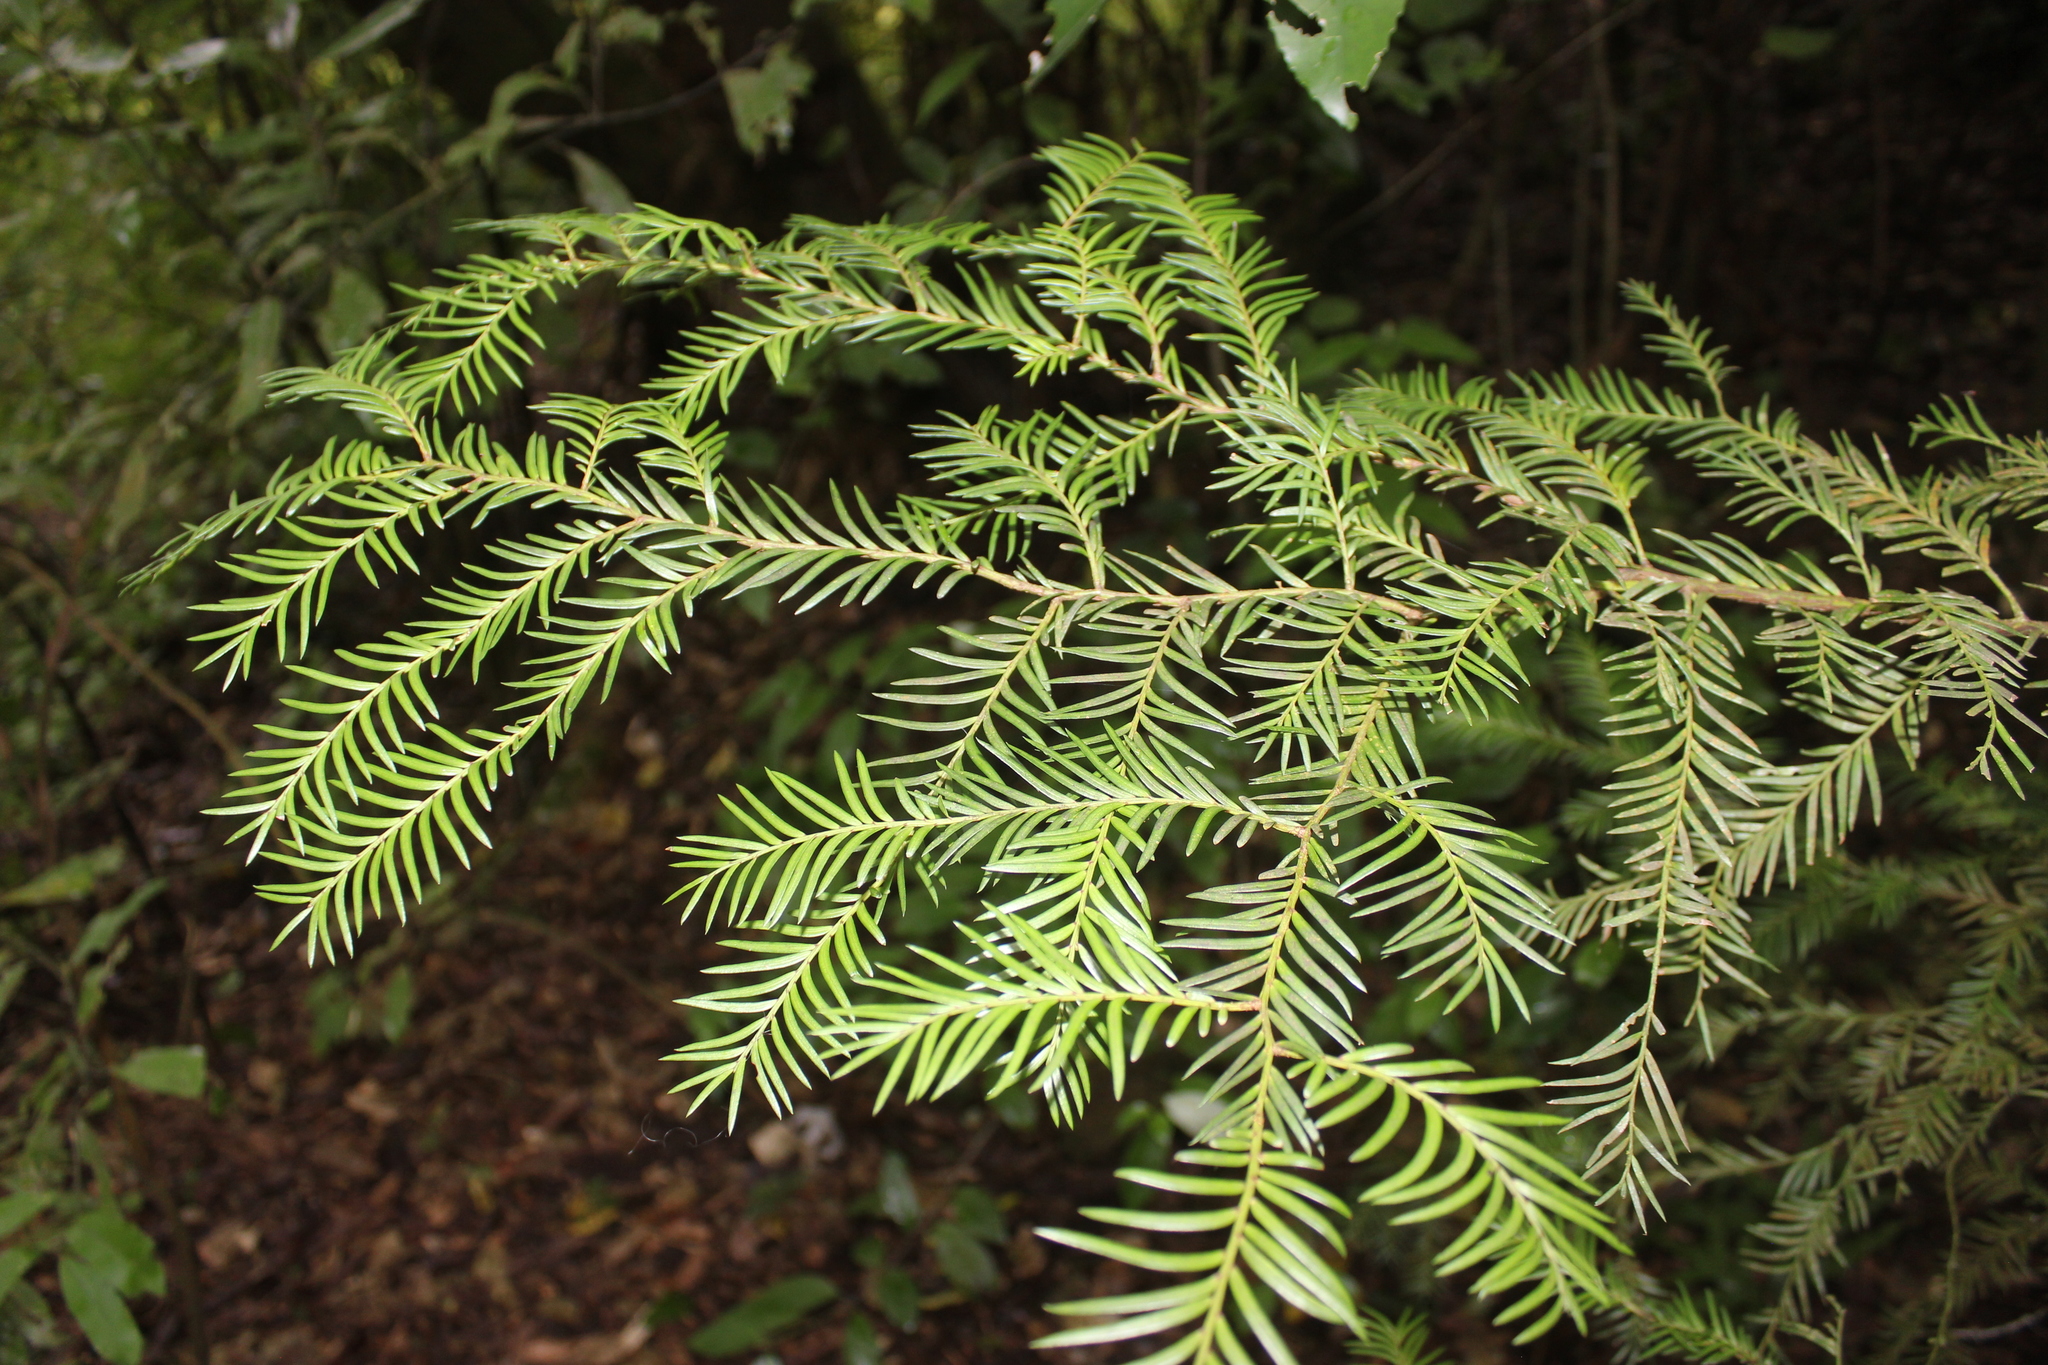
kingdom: Plantae
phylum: Tracheophyta
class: Pinopsida
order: Pinales
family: Podocarpaceae
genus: Prumnopitys
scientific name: Prumnopitys ferruginea
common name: Brown pine
